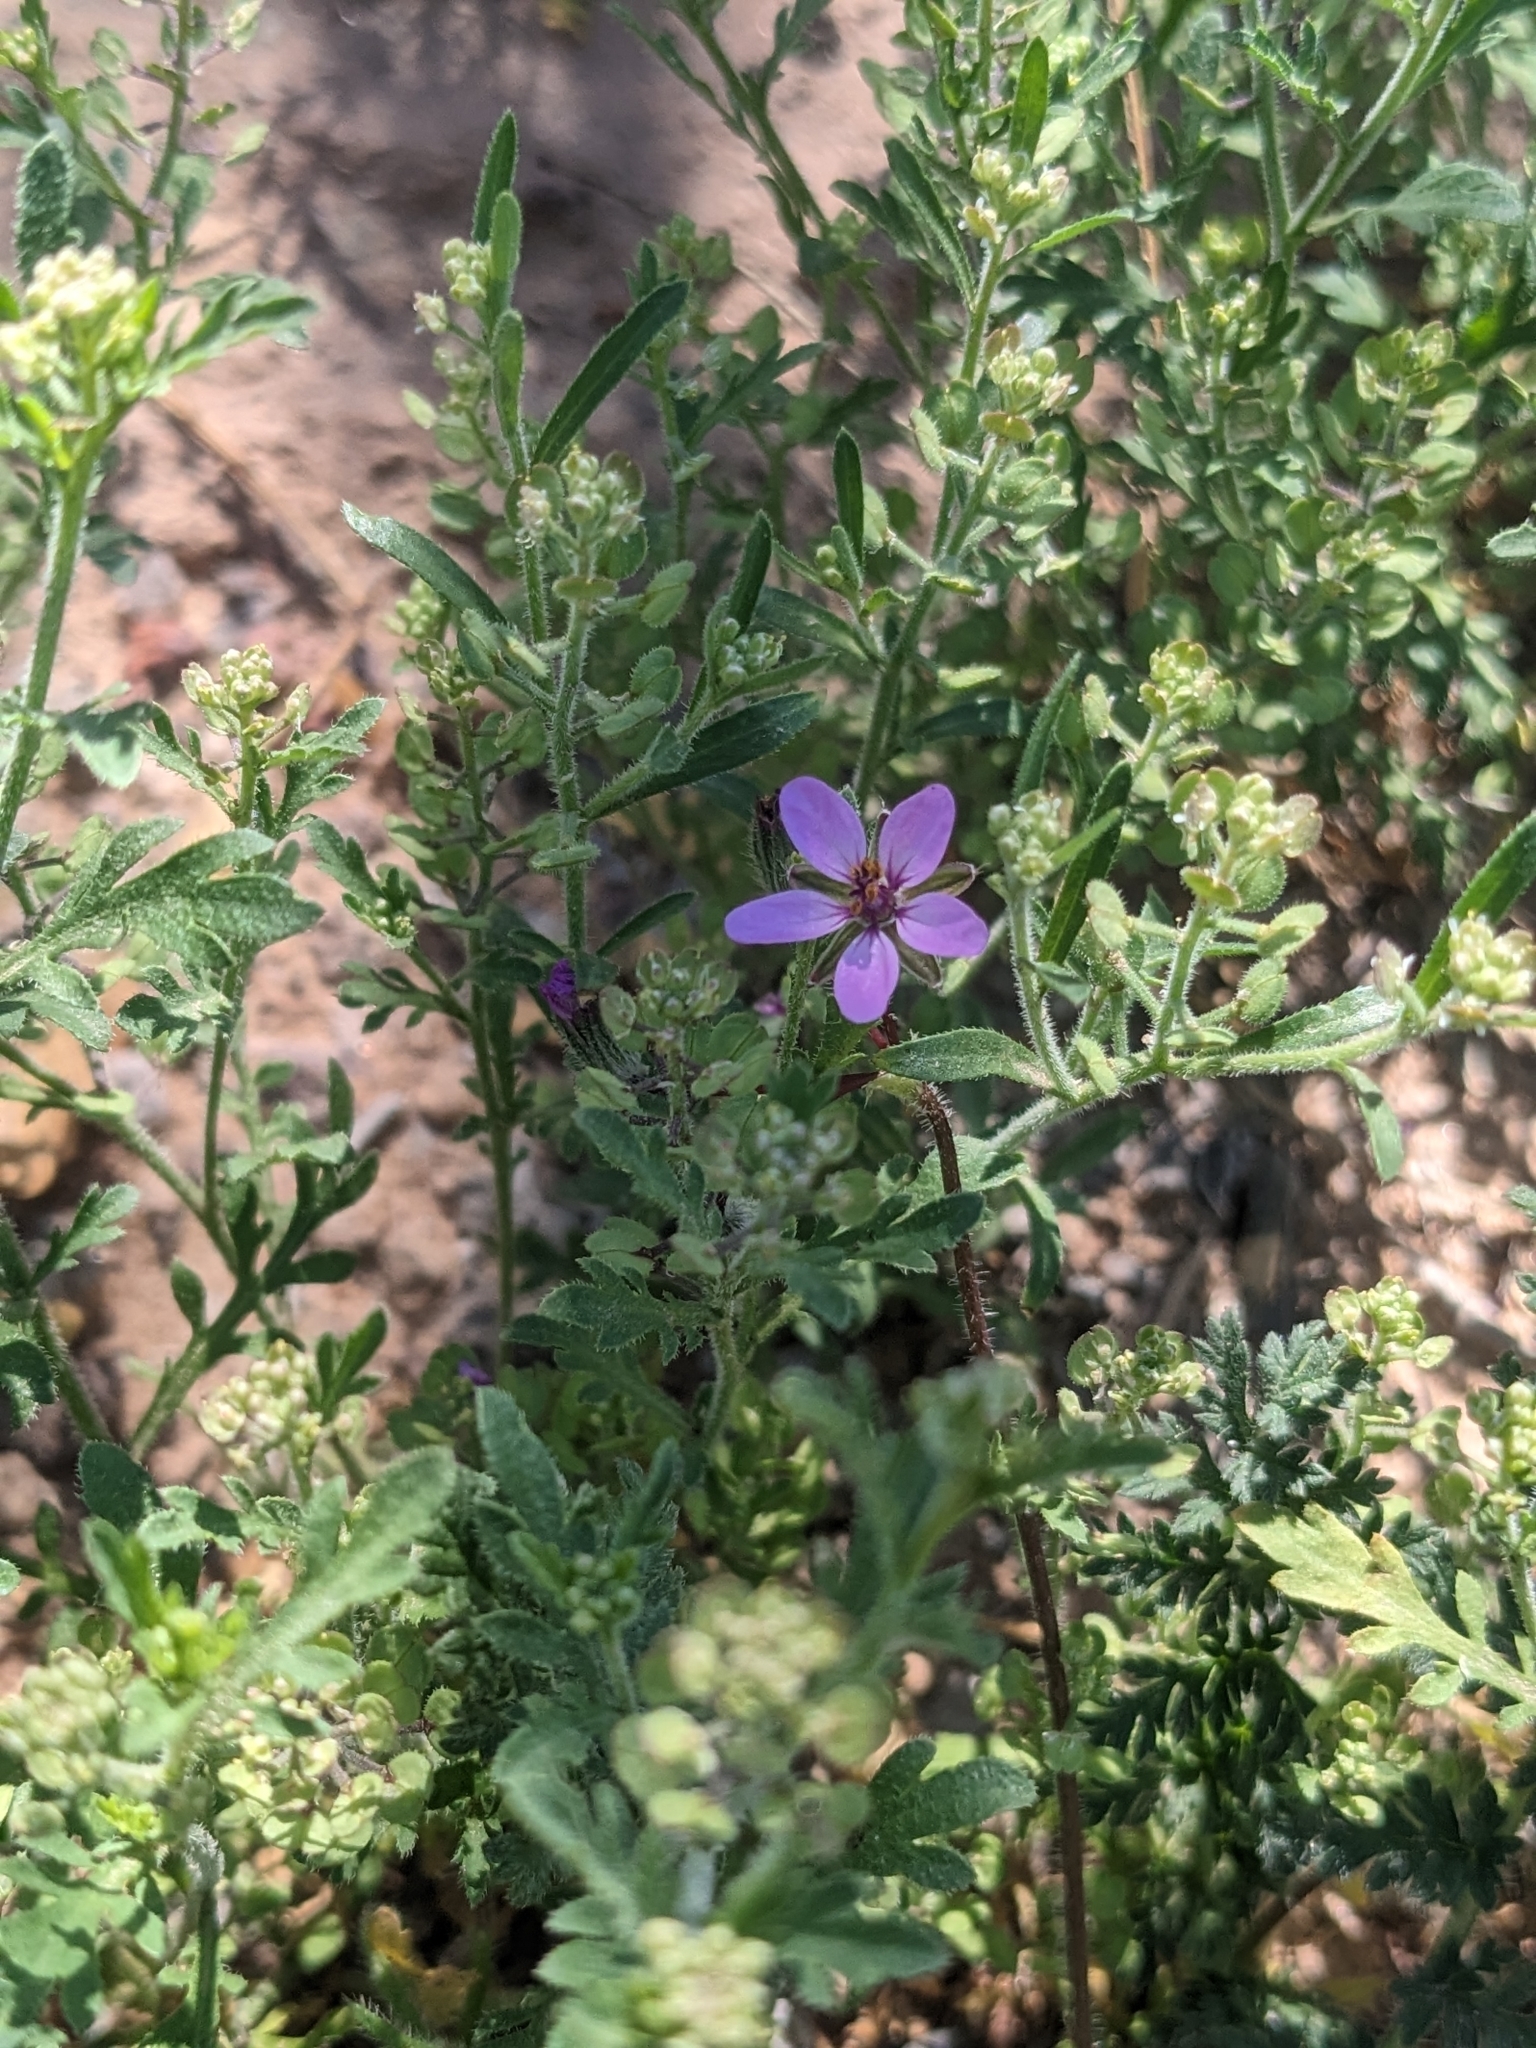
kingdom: Plantae
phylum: Tracheophyta
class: Magnoliopsida
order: Geraniales
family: Geraniaceae
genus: Erodium
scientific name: Erodium cicutarium
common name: Common stork's-bill
